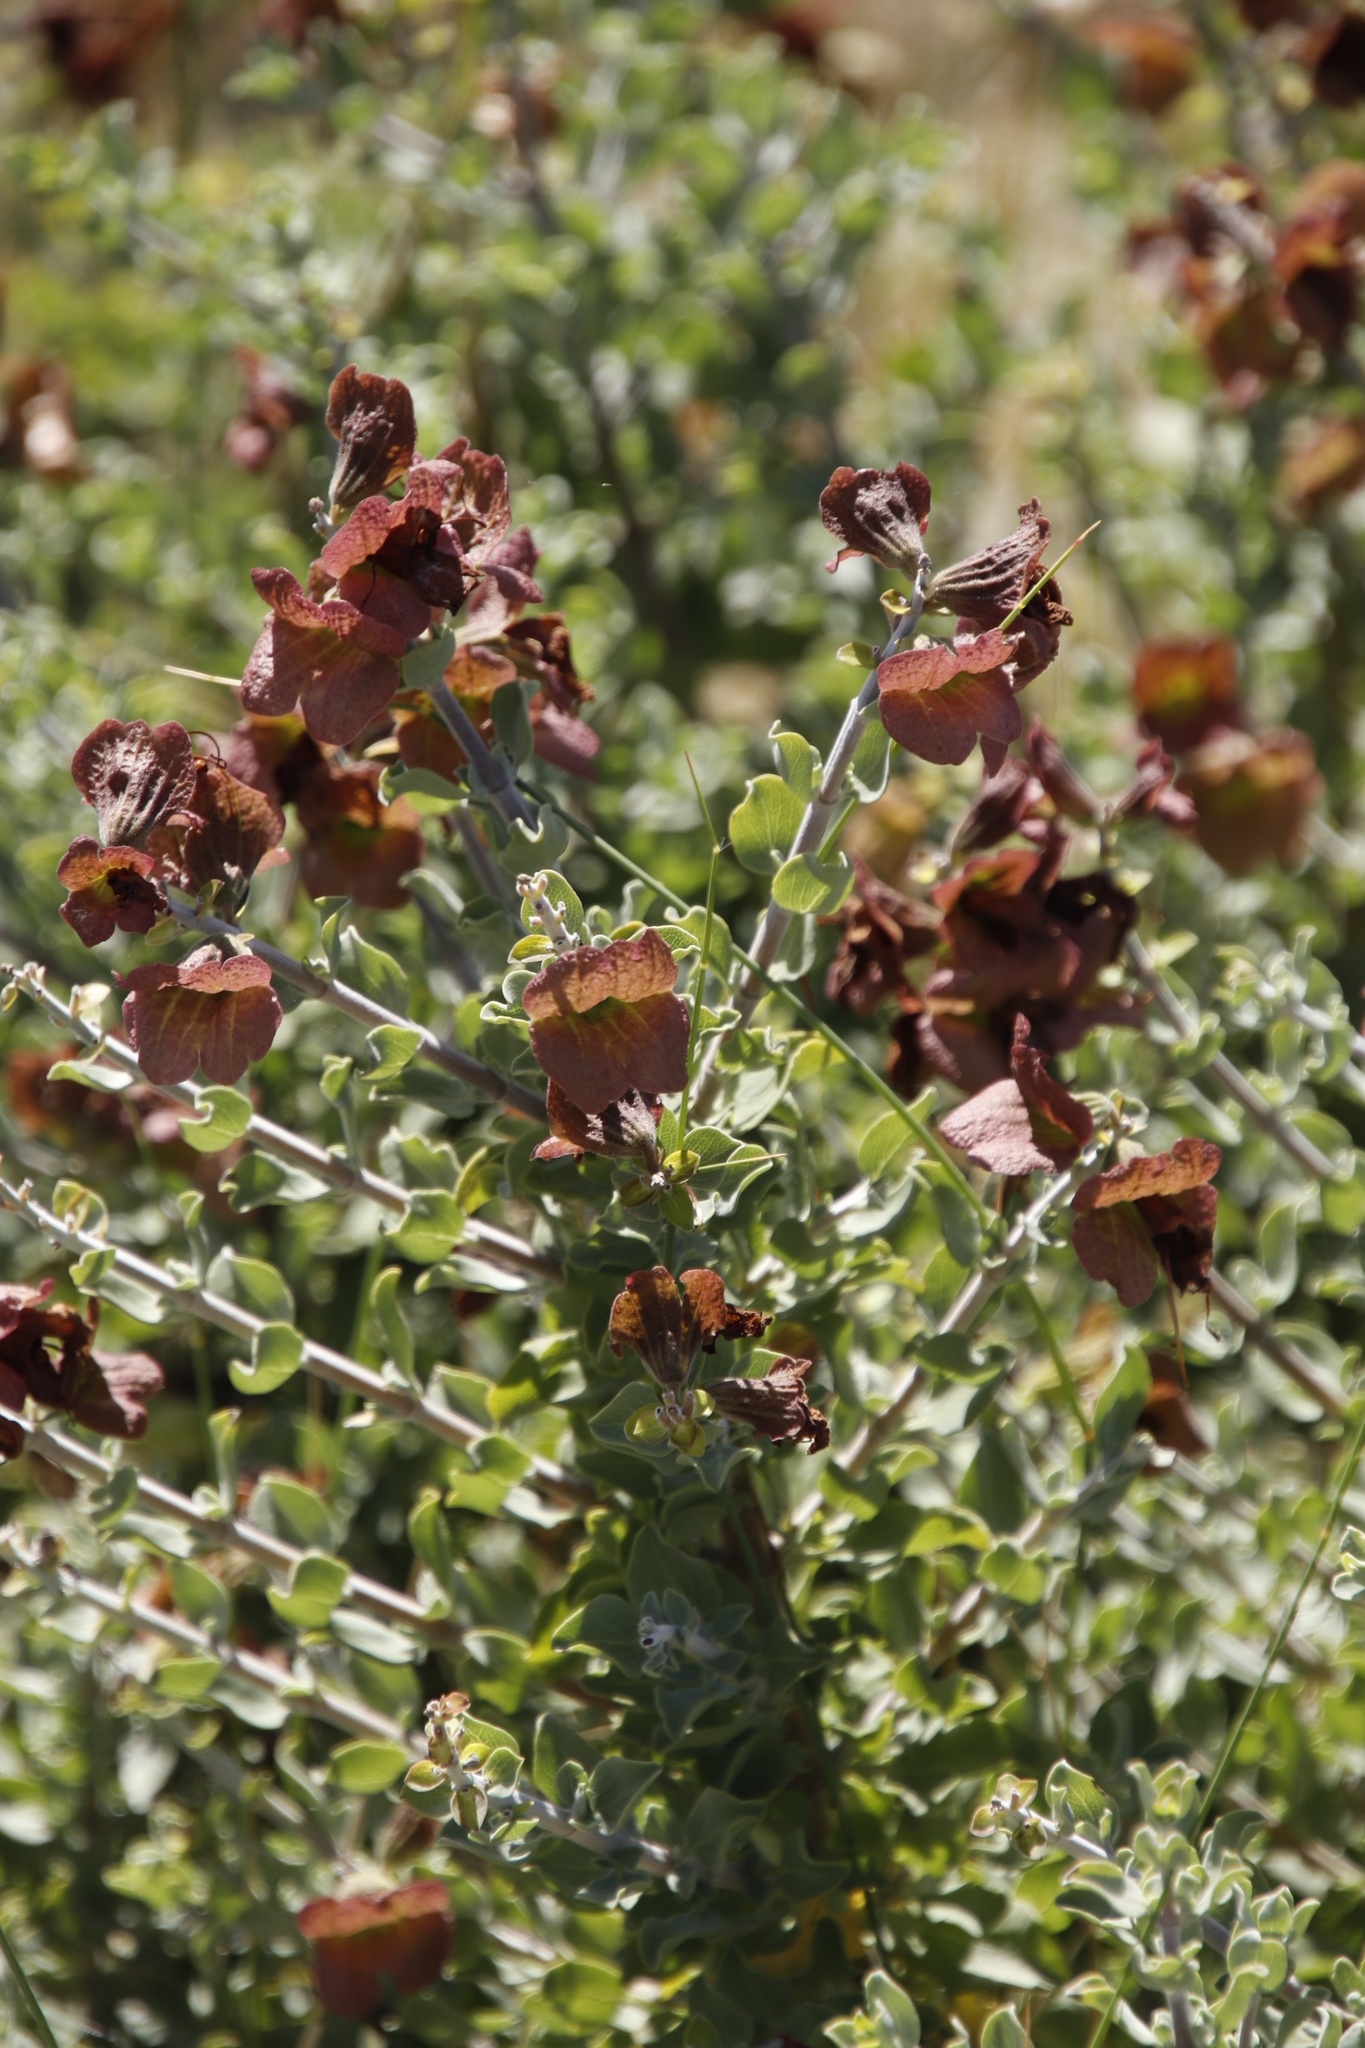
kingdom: Plantae
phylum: Tracheophyta
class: Magnoliopsida
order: Lamiales
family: Lamiaceae
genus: Salvia
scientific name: Salvia aurea
